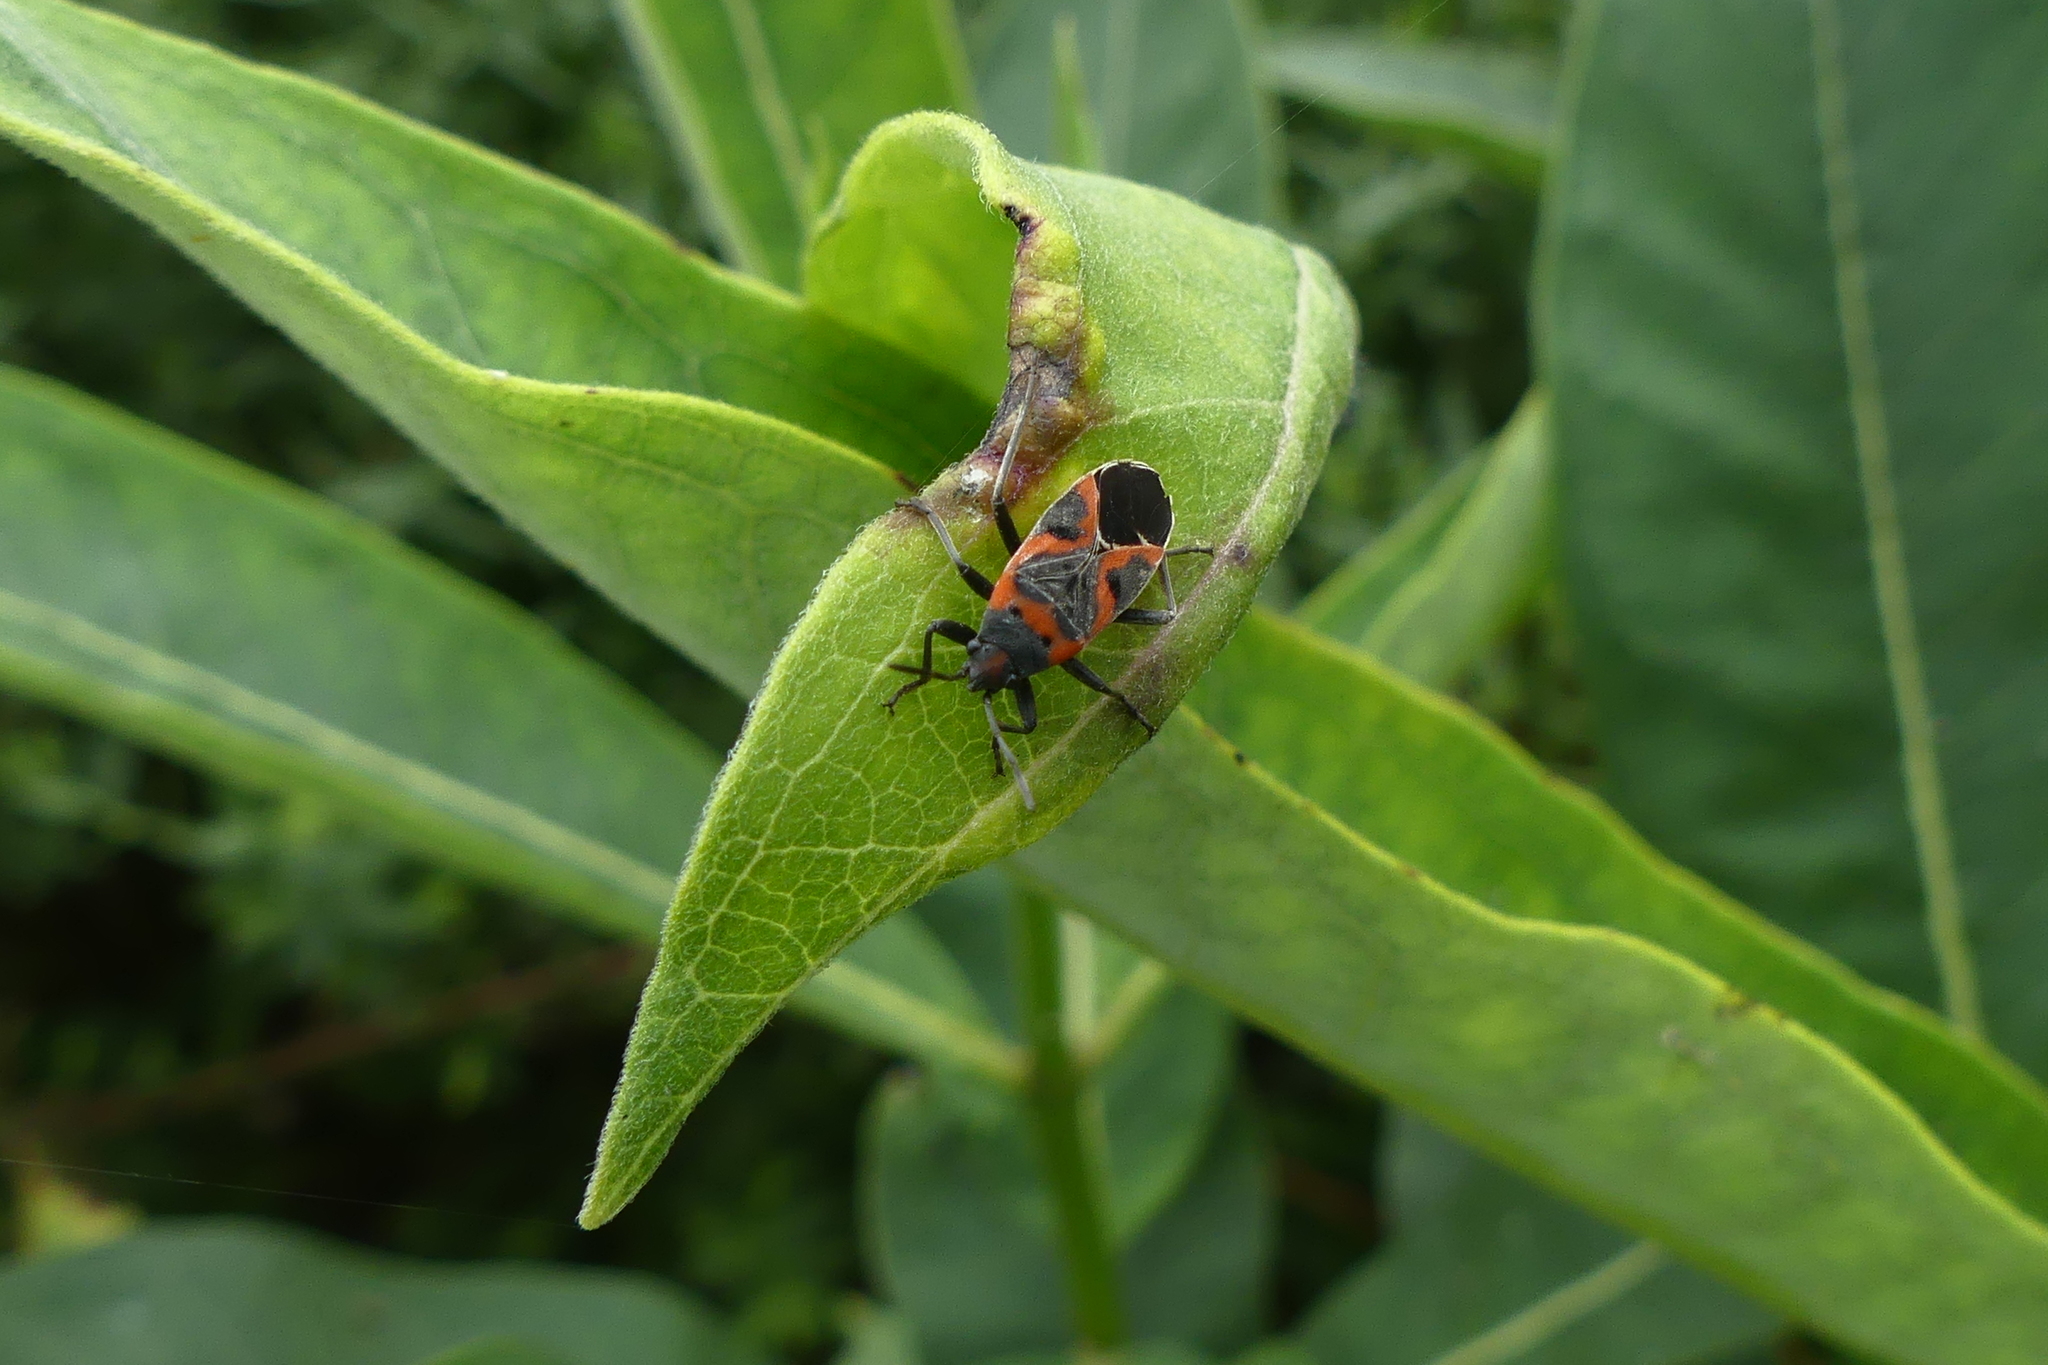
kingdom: Animalia
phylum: Arthropoda
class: Insecta
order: Hemiptera
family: Lygaeidae
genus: Lygaeus
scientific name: Lygaeus kalmii
